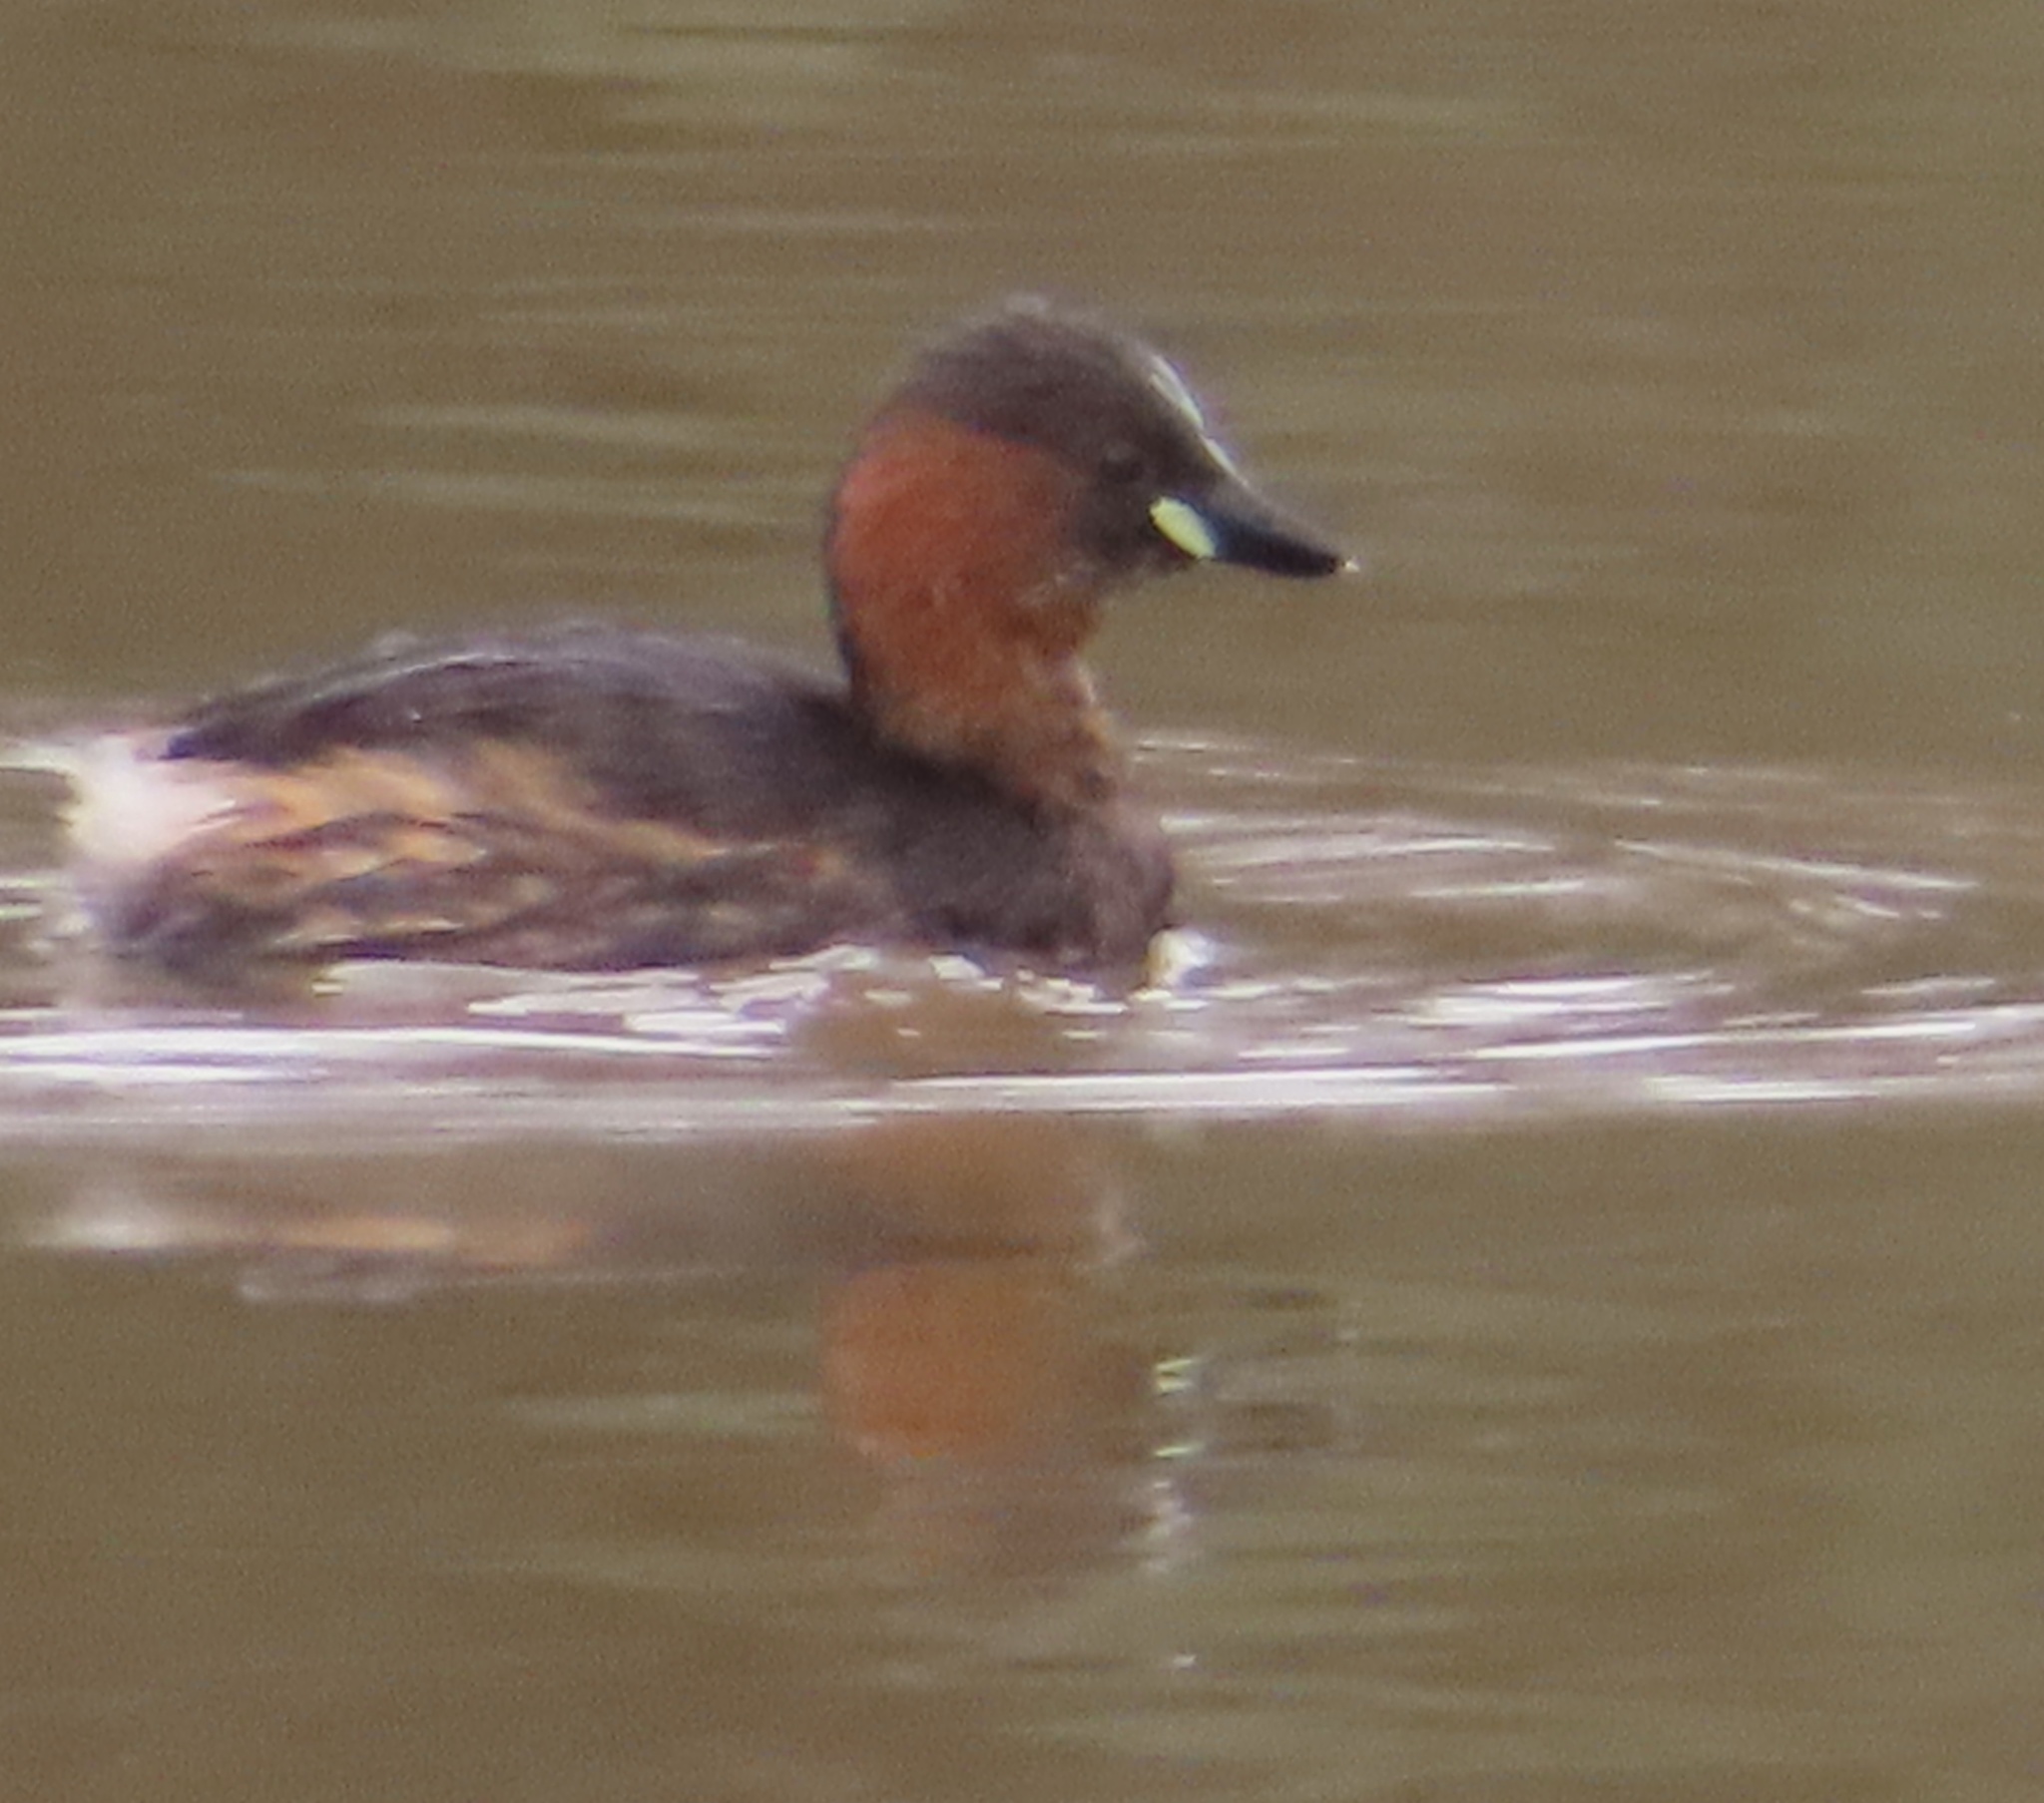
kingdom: Animalia
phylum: Chordata
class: Aves
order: Podicipediformes
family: Podicipedidae
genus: Tachybaptus
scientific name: Tachybaptus ruficollis
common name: Little grebe
